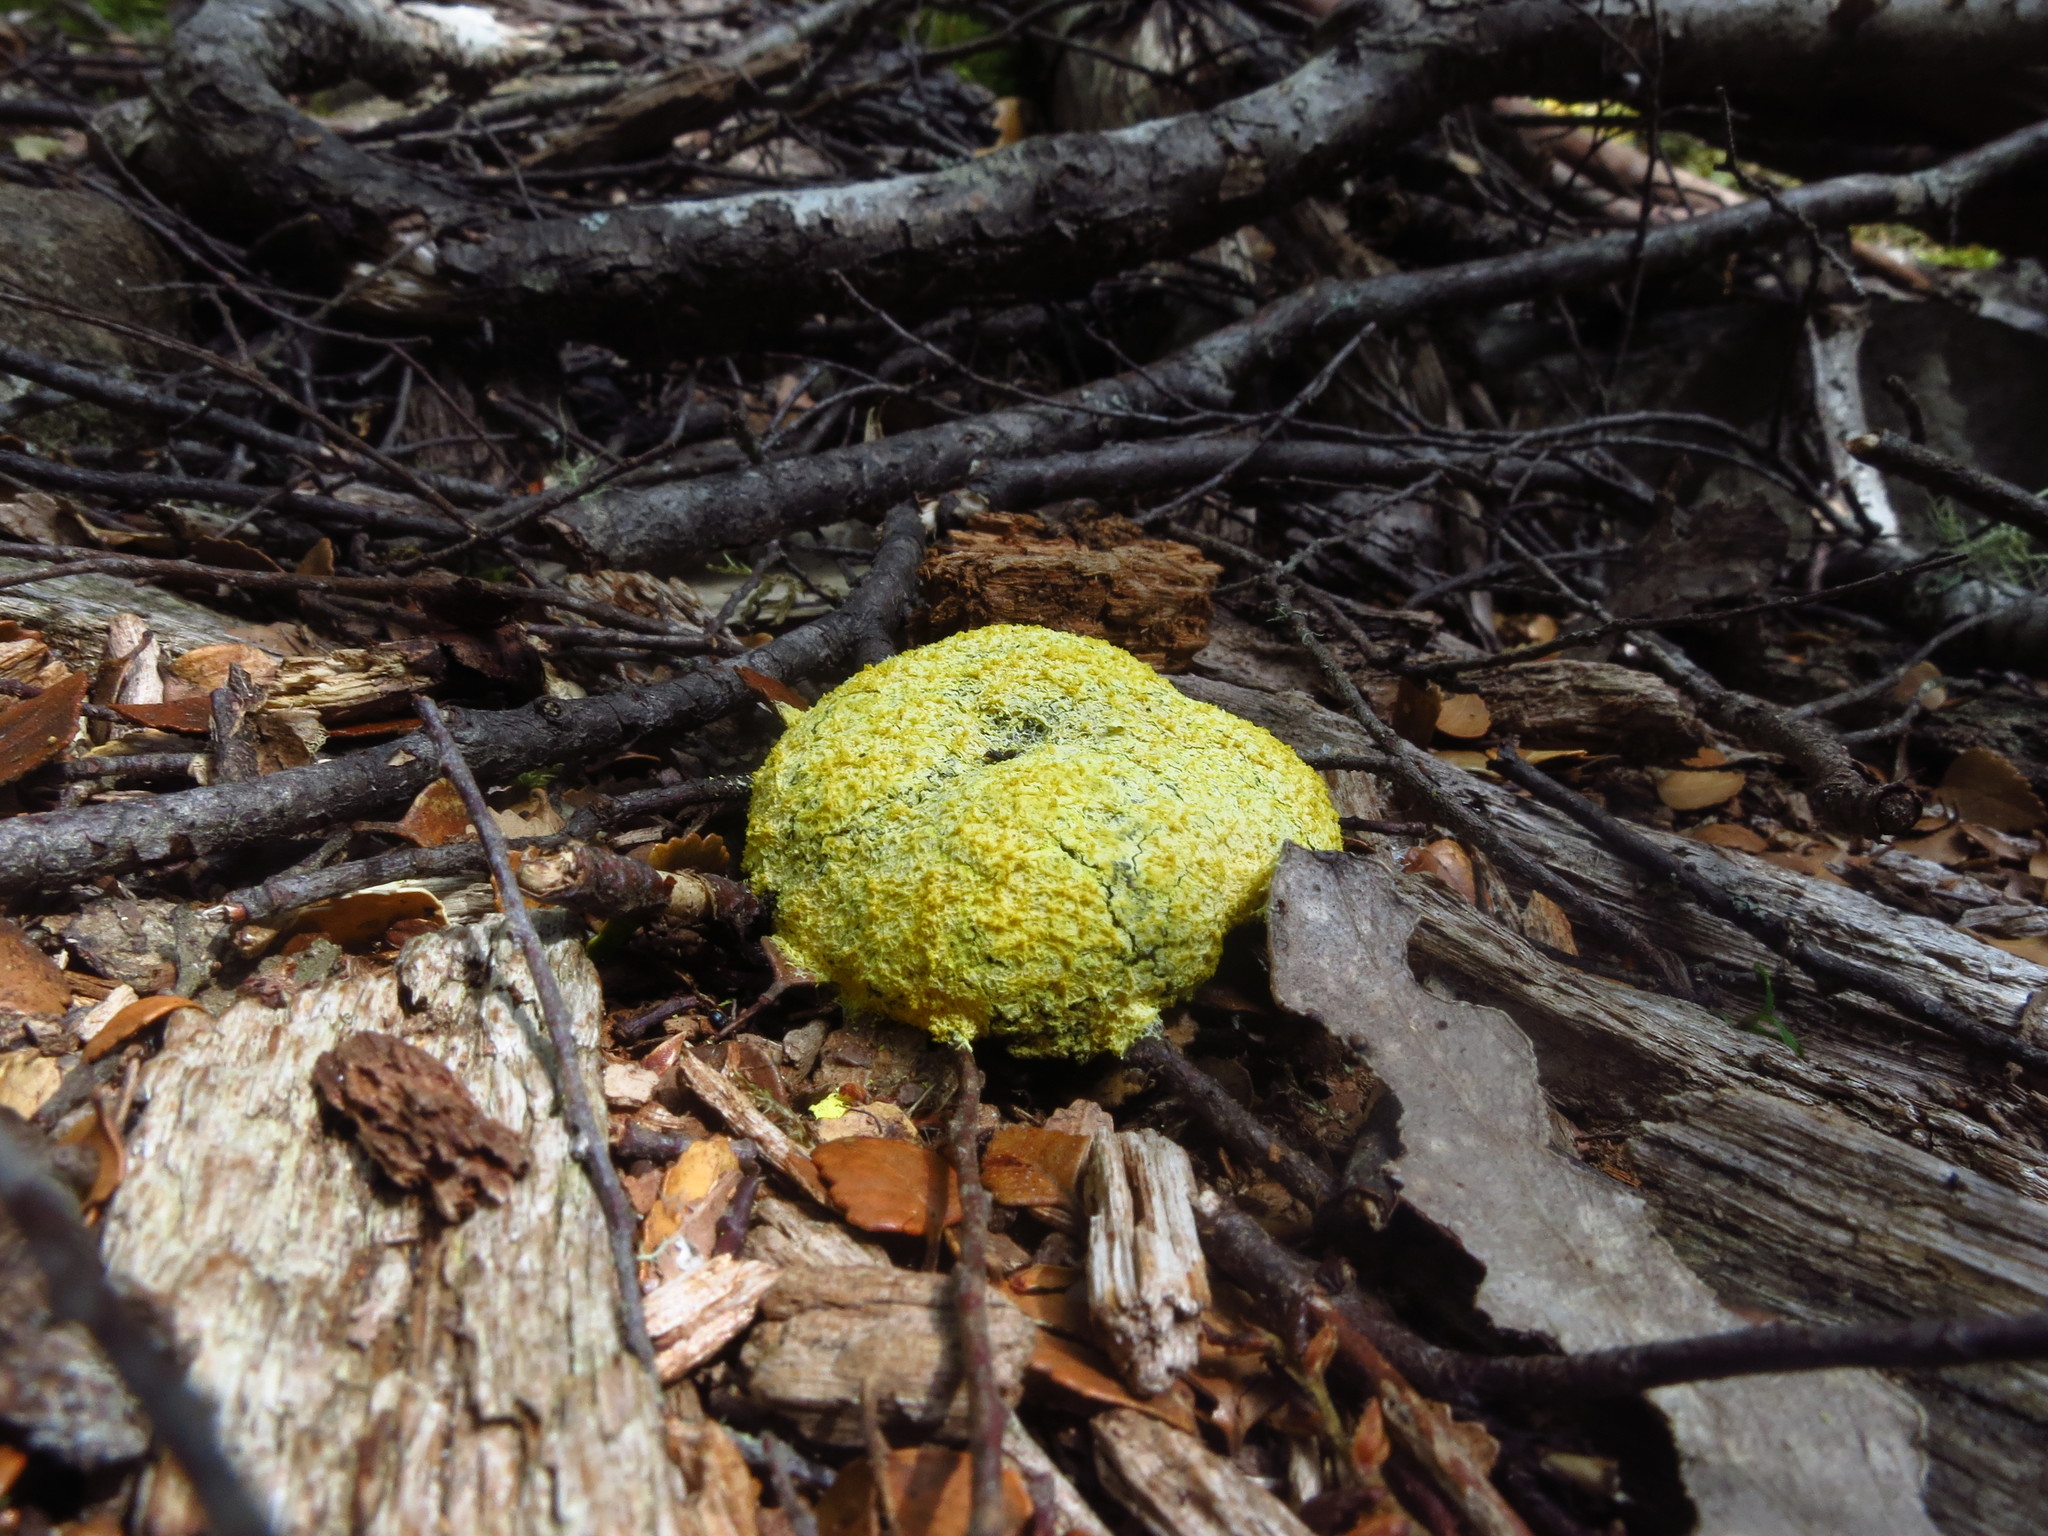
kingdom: Protozoa
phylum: Mycetozoa
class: Myxomycetes
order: Physarales
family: Physaraceae
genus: Fuligo
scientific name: Fuligo septica
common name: Dog vomit slime mold
